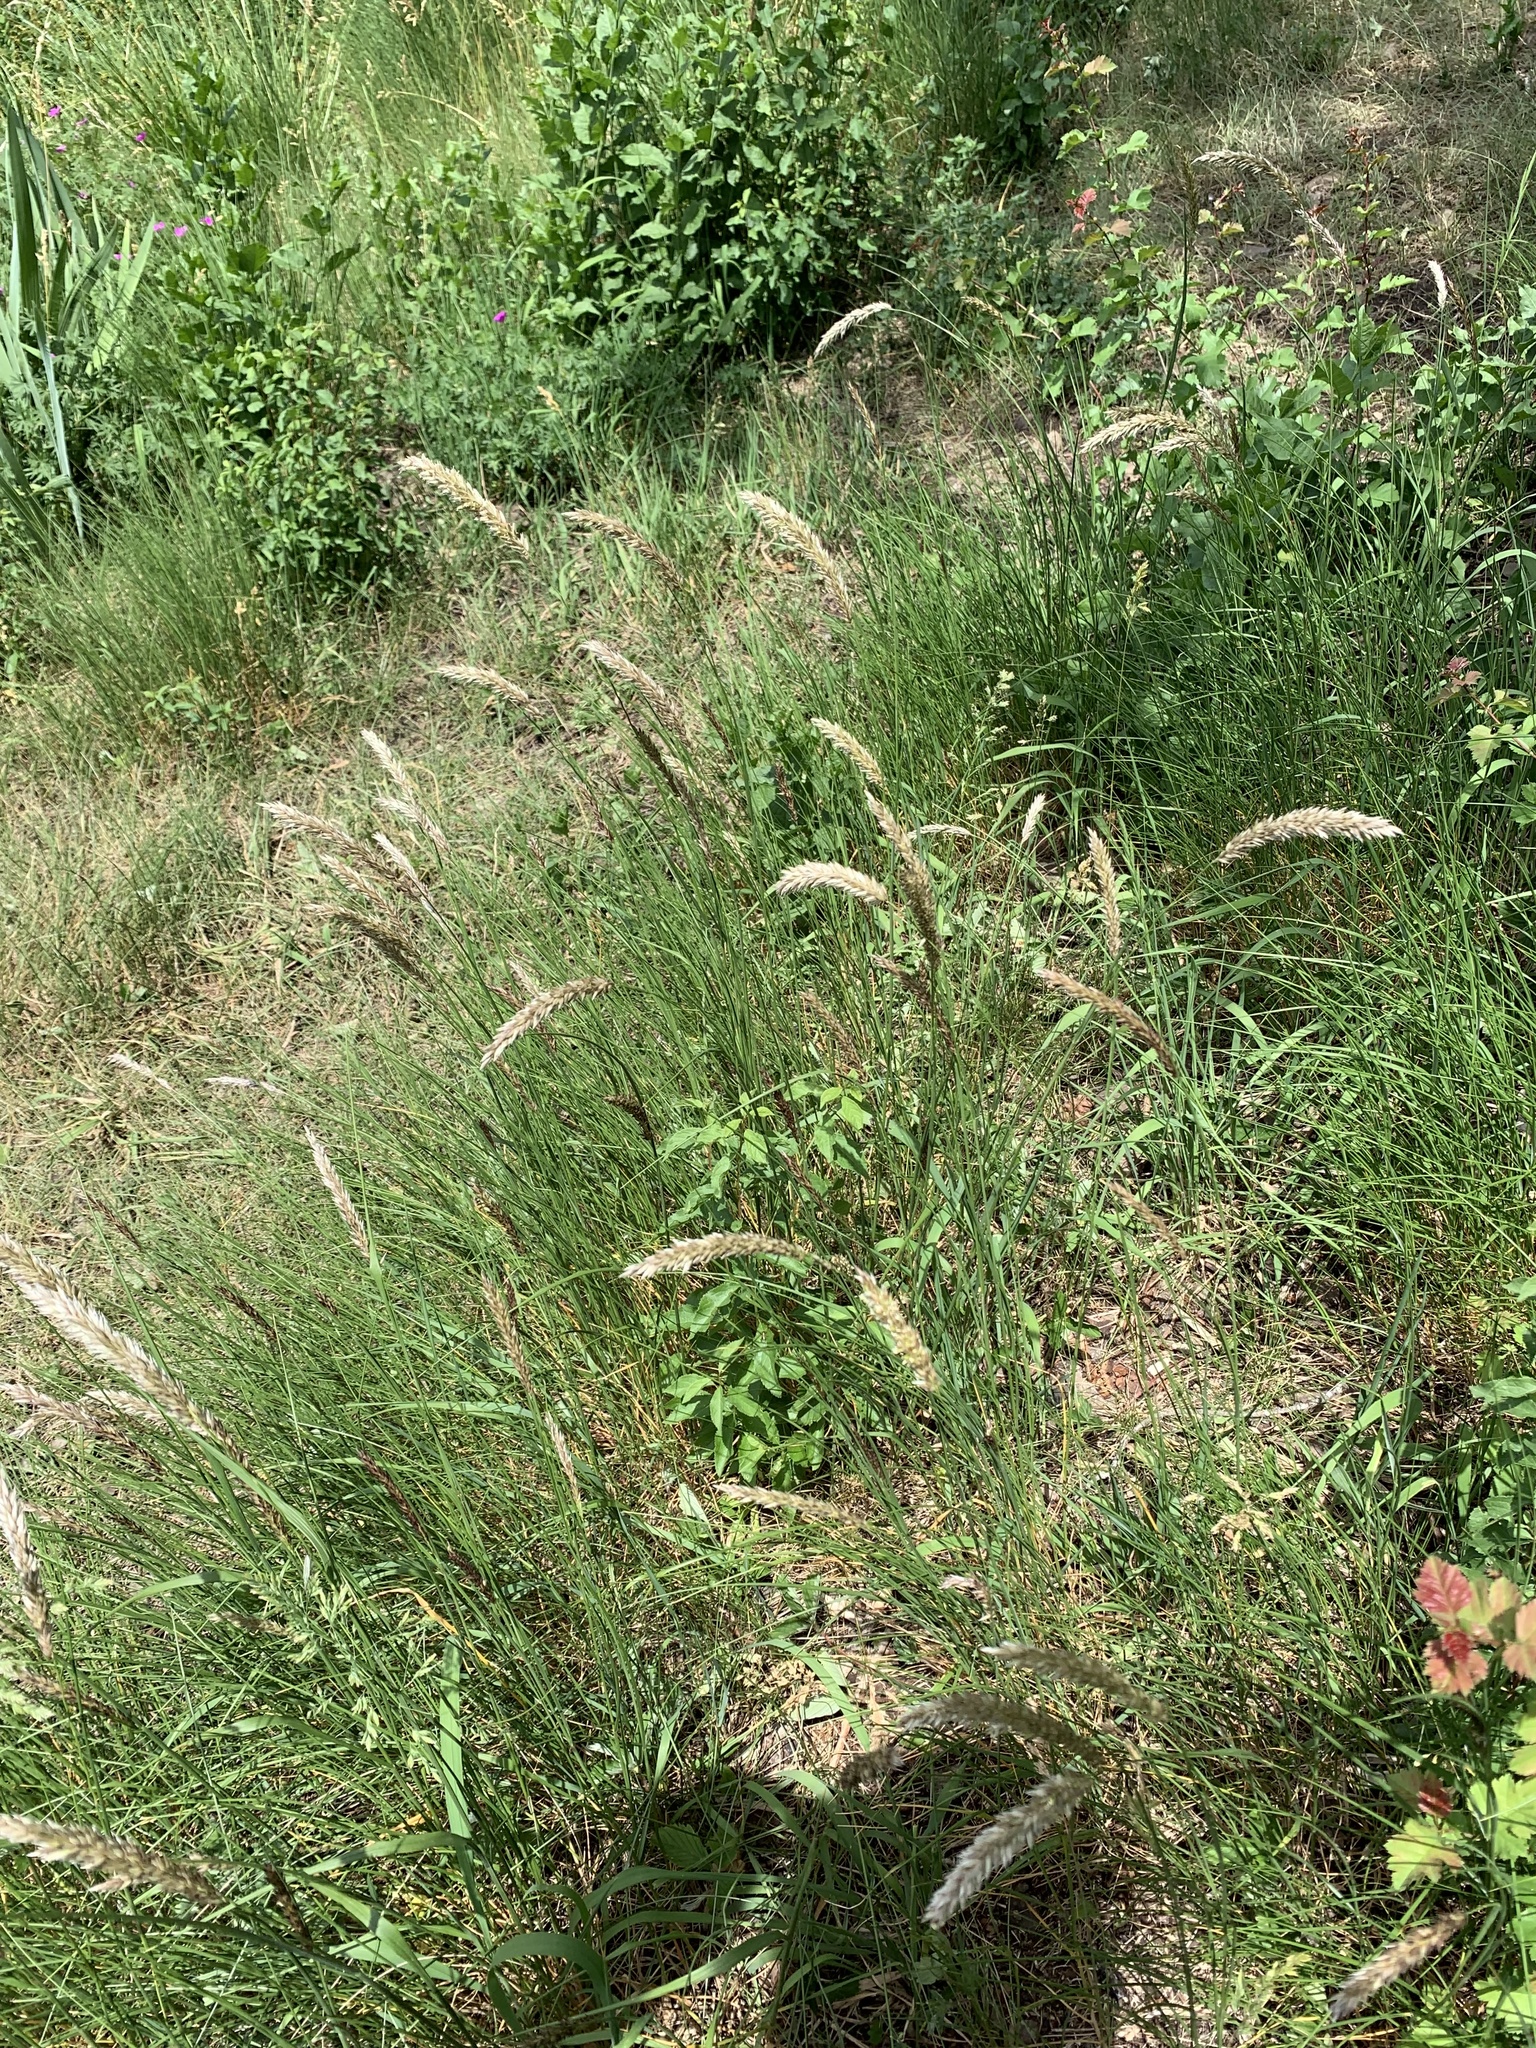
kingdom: Plantae
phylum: Tracheophyta
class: Liliopsida
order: Poales
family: Poaceae
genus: Melica
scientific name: Melica ciliata
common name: Hairy melicgrass
